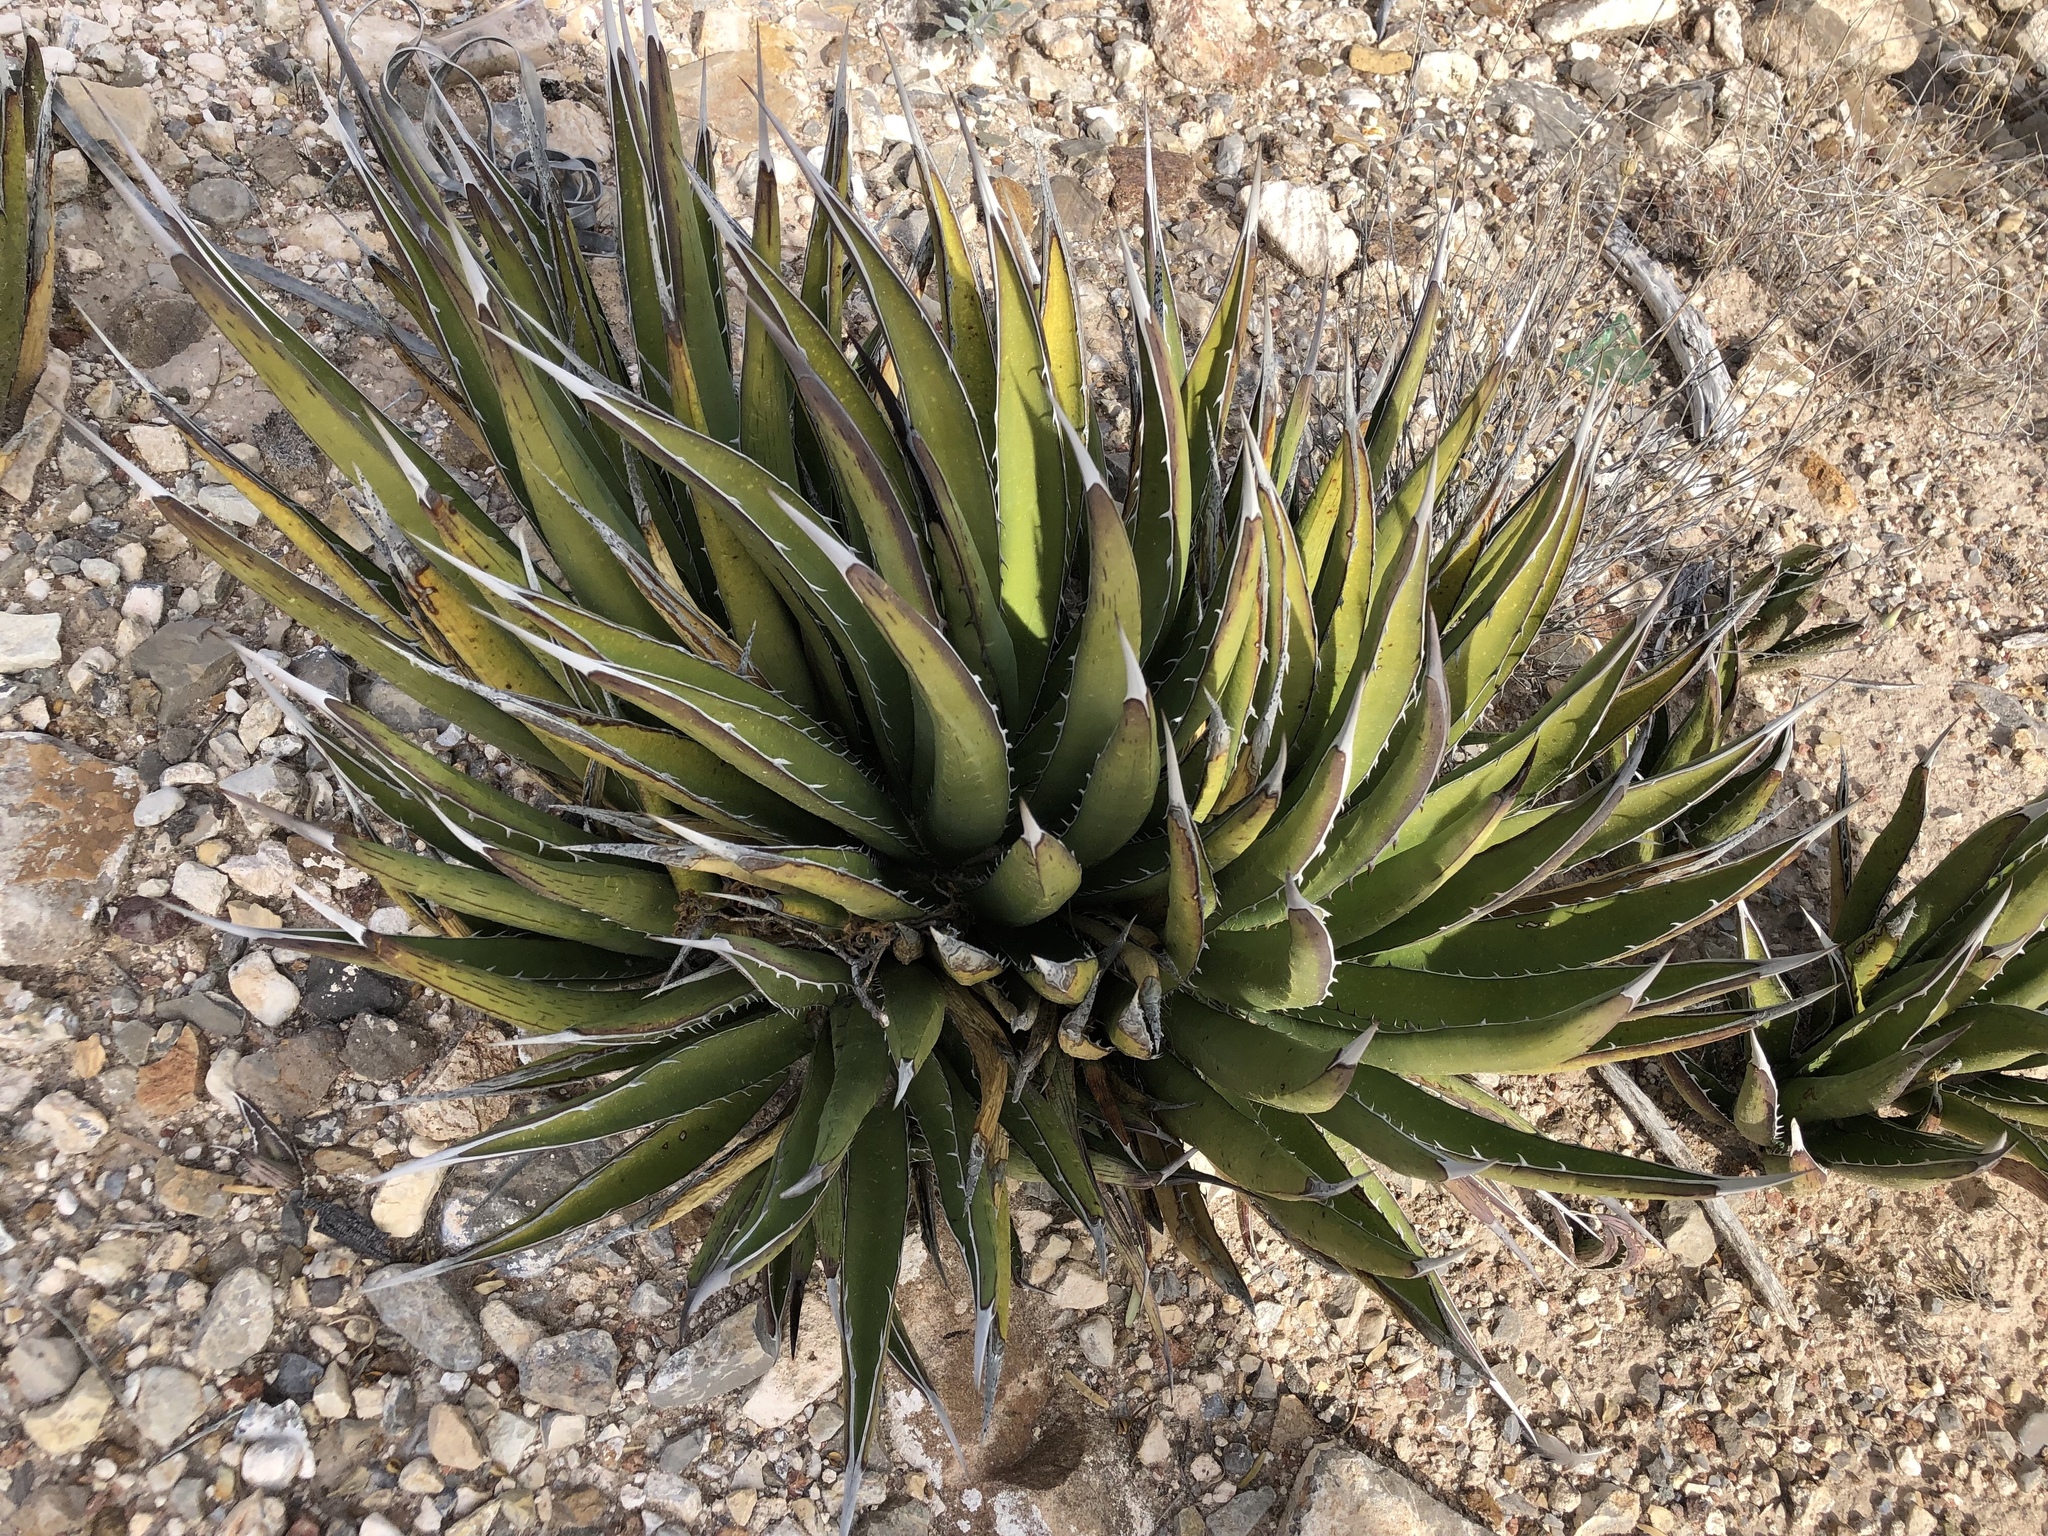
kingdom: Plantae
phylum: Tracheophyta
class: Liliopsida
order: Asparagales
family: Asparagaceae
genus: Agave
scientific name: Agave lechuguilla
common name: Lecheguilla agave
